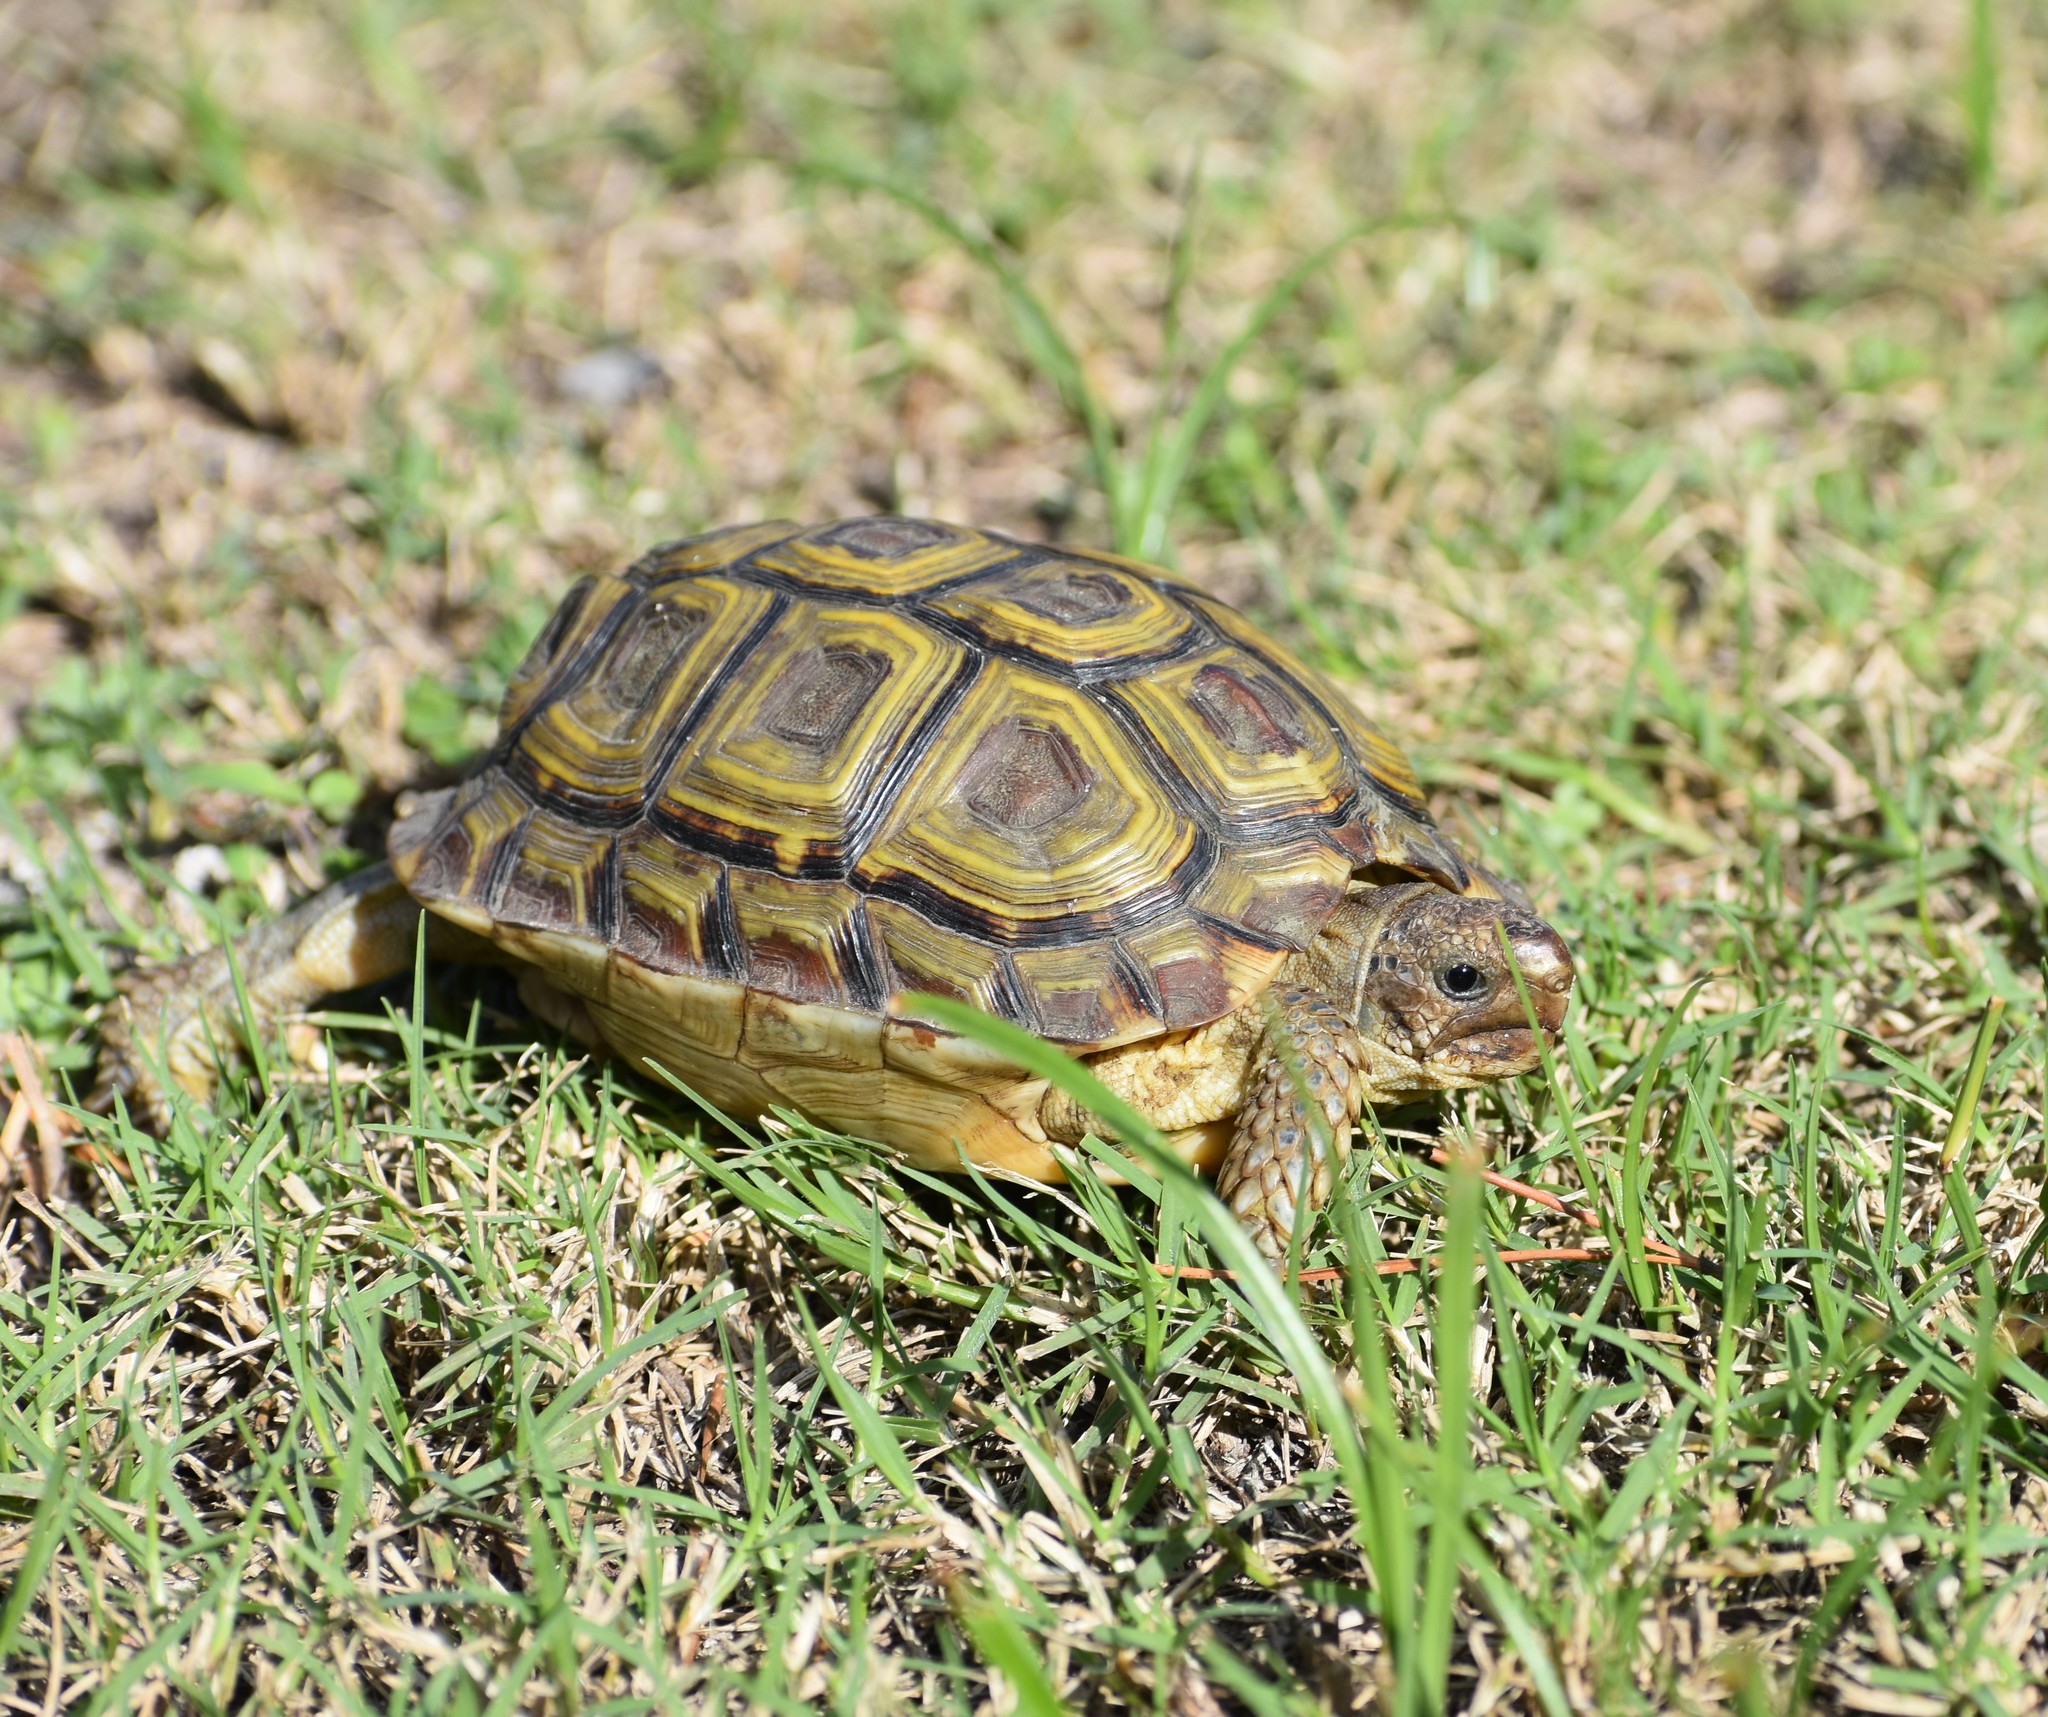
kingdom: Animalia
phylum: Chordata
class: Testudines
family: Testudinidae
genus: Homopus
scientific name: Homopus areolatus
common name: Parrot-beaked tortoise
